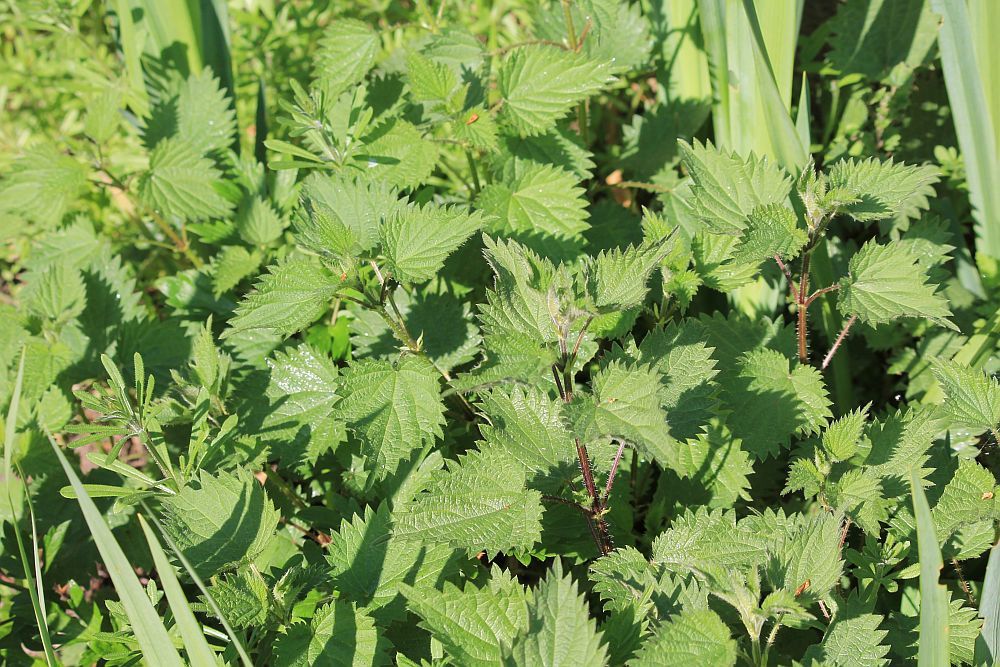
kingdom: Plantae
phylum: Tracheophyta
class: Magnoliopsida
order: Rosales
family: Urticaceae
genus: Urtica
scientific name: Urtica dioica
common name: Common nettle
